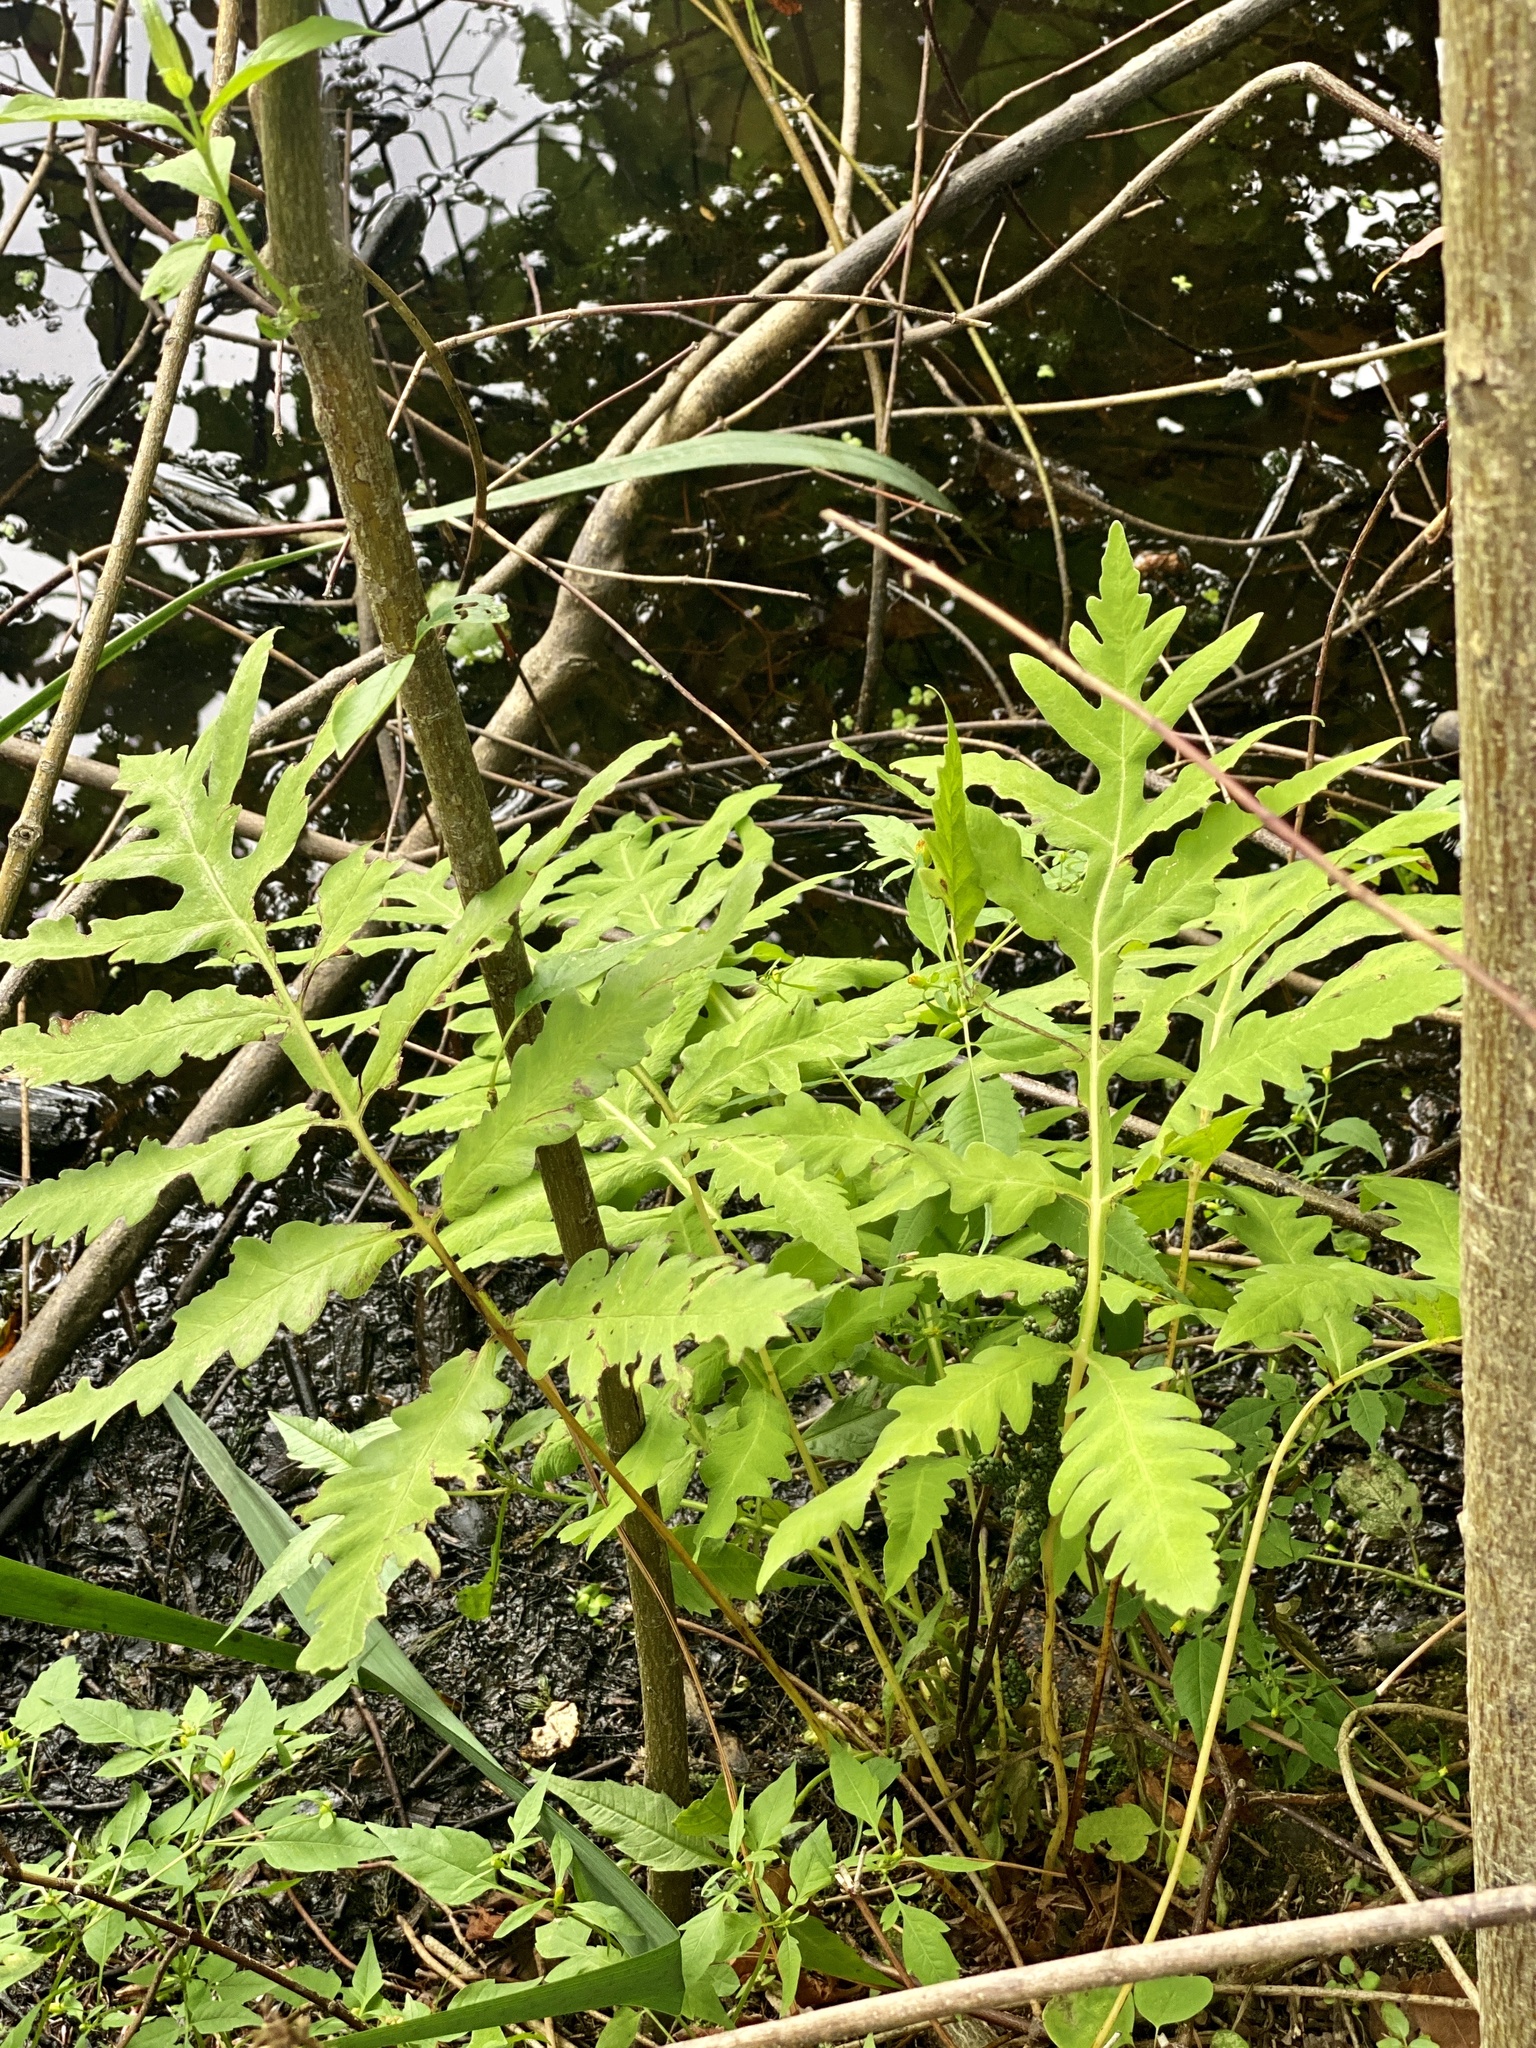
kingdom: Plantae
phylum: Tracheophyta
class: Polypodiopsida
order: Polypodiales
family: Onocleaceae
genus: Onoclea
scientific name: Onoclea sensibilis
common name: Sensitive fern
